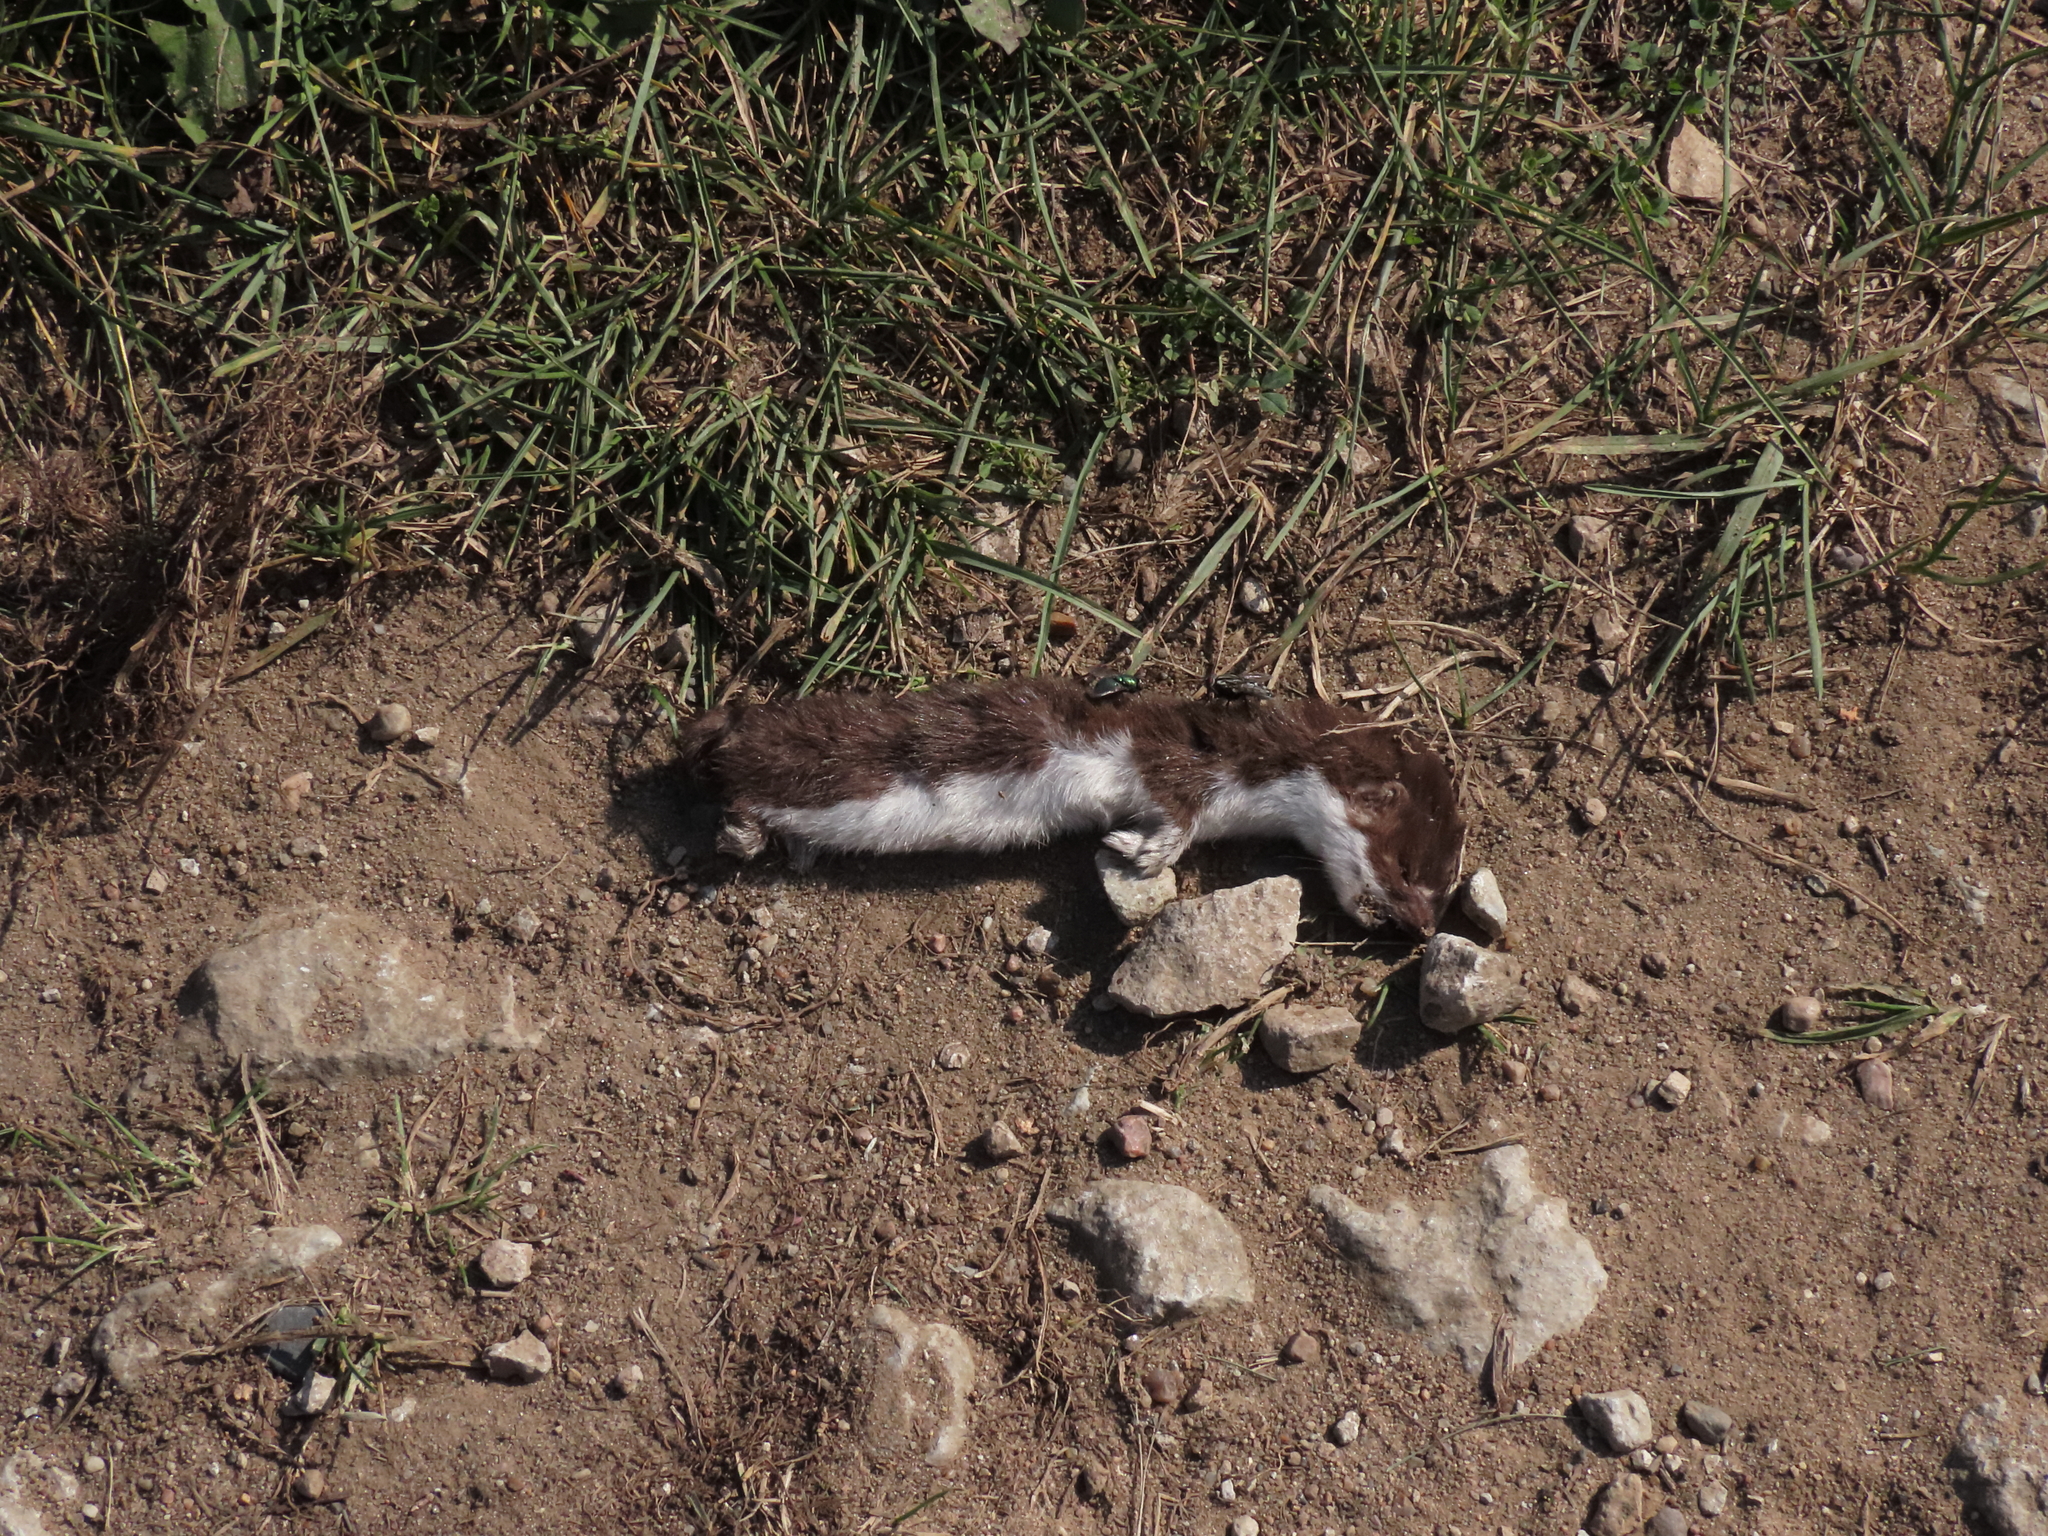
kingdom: Animalia
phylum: Chordata
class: Mammalia
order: Carnivora
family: Mustelidae
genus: Mustela
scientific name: Mustela nivalis
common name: Least weasel
